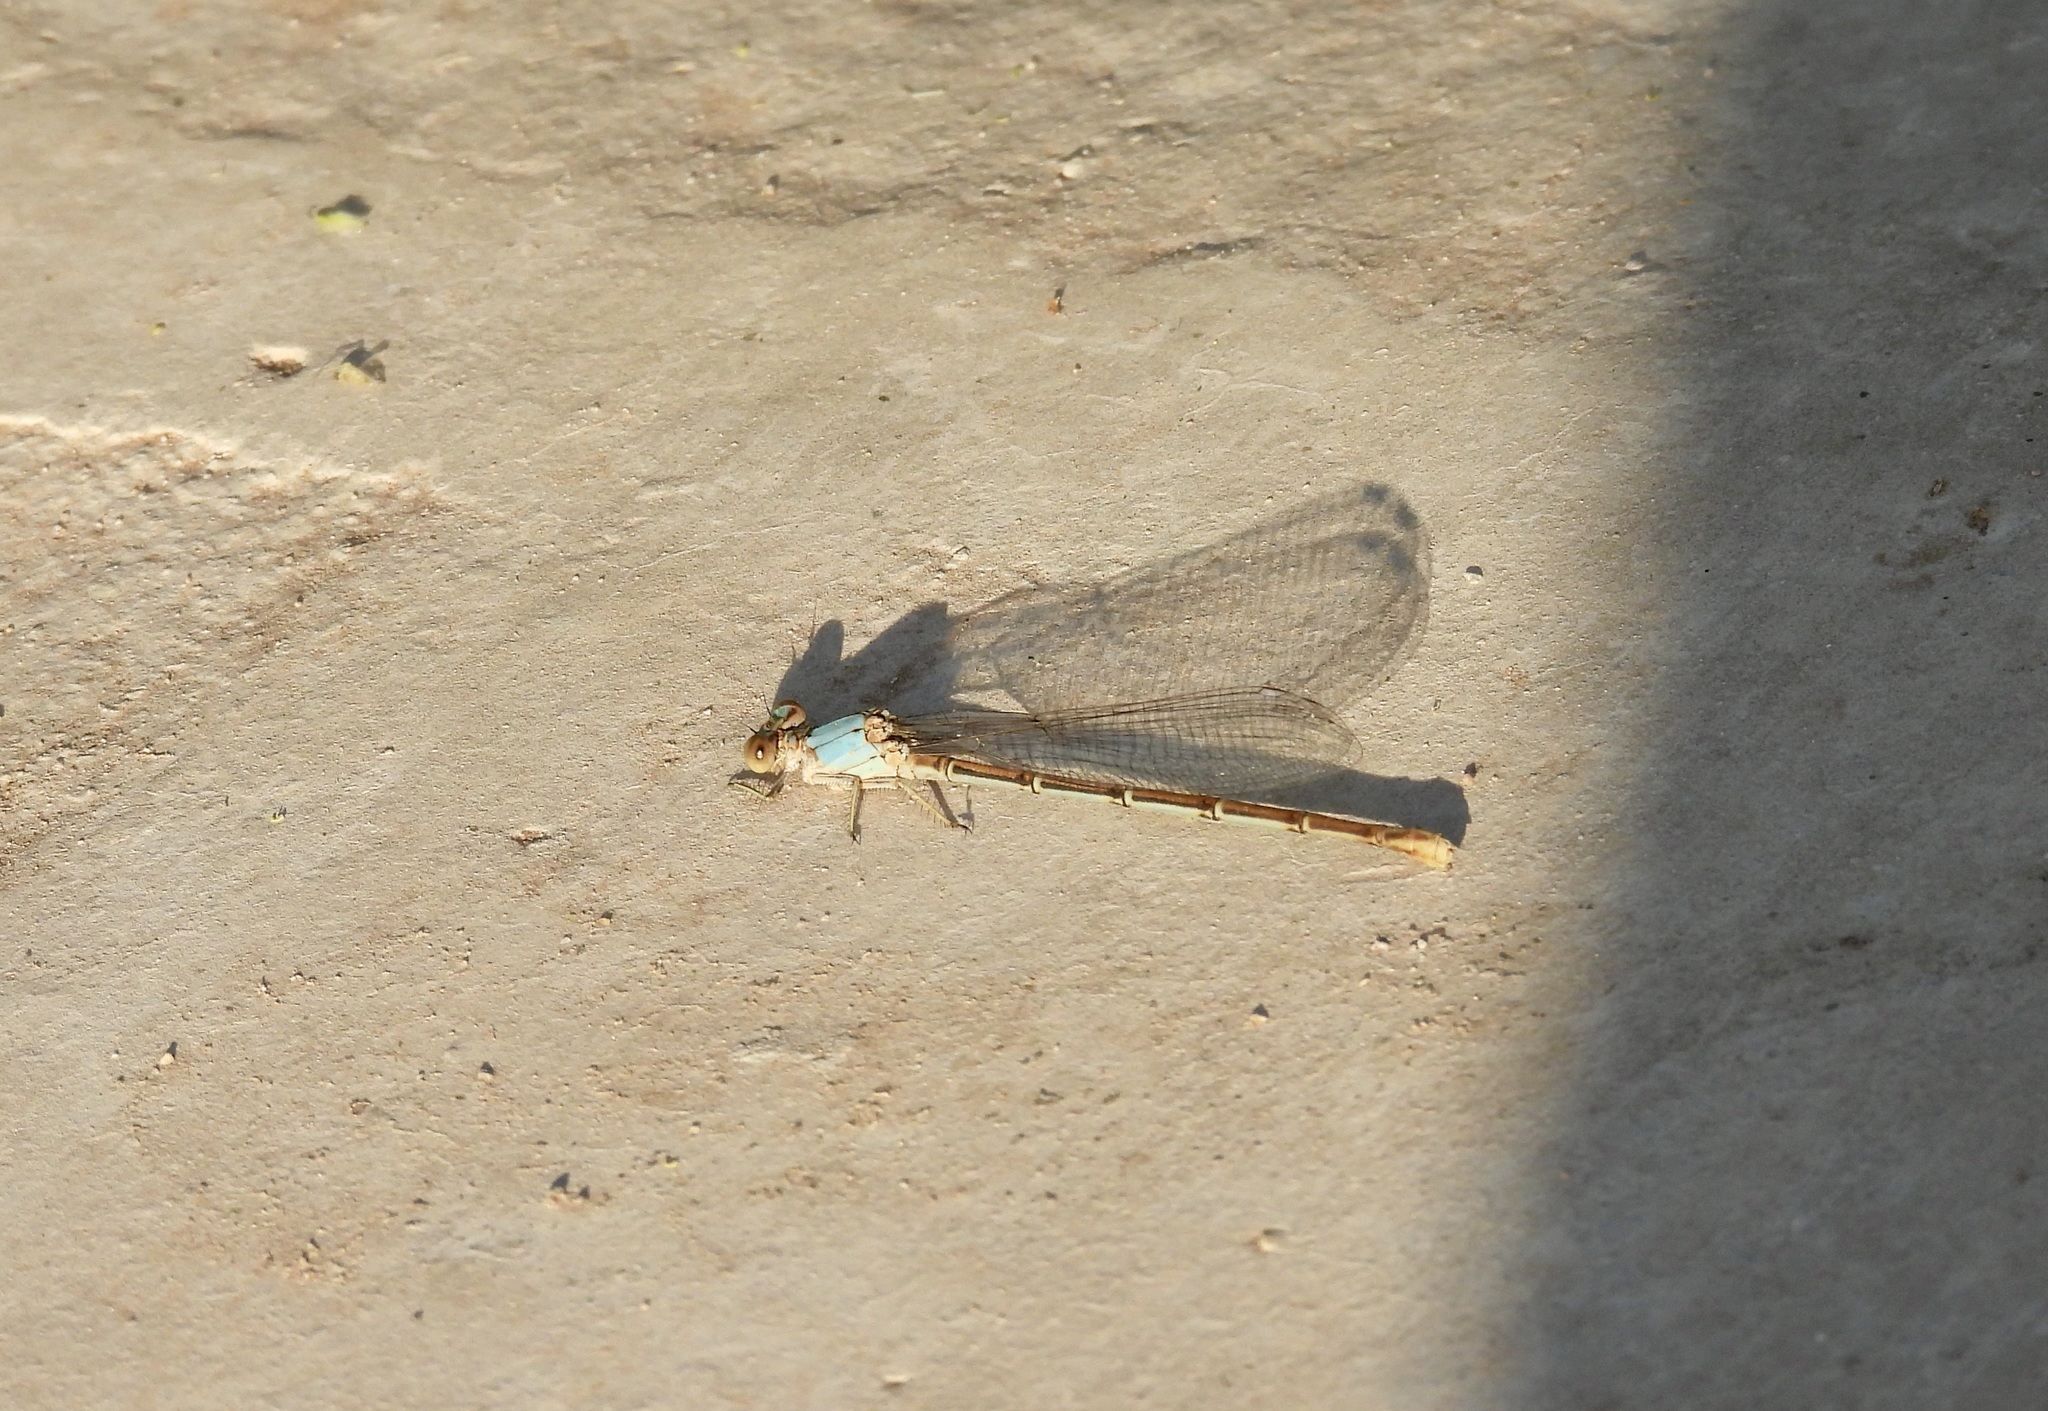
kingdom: Animalia
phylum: Arthropoda
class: Insecta
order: Odonata
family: Coenagrionidae
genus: Argia
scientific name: Argia moesta
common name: Powdered dancer
